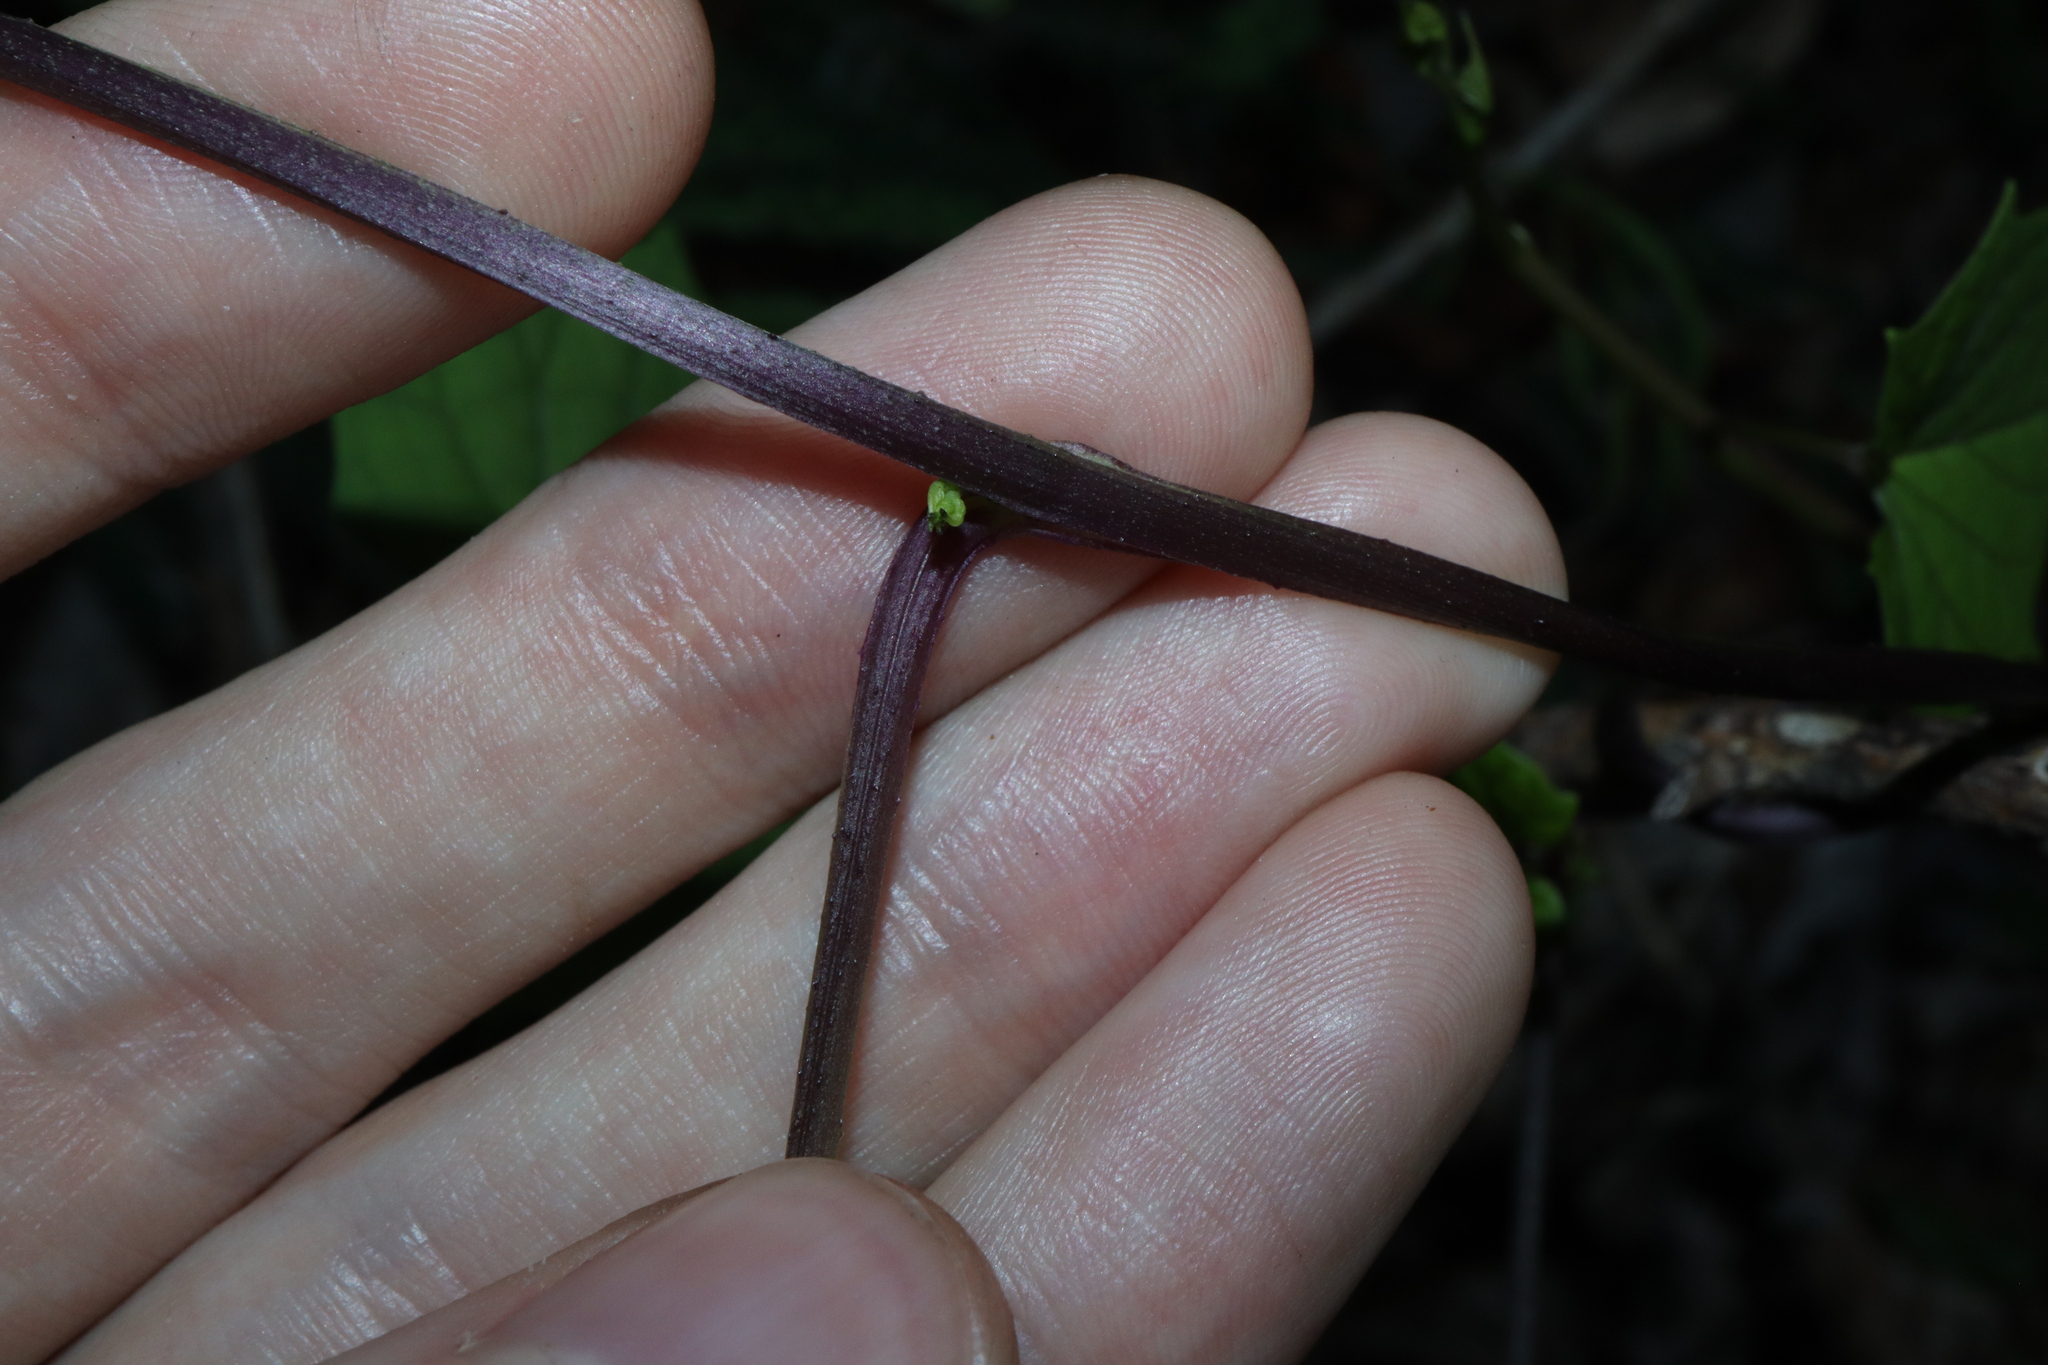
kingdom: Plantae
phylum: Tracheophyta
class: Magnoliopsida
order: Solanales
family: Convolvulaceae
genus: Ipomoea
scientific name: Ipomoea hederifolia
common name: Ivy-leaf morning-glory
